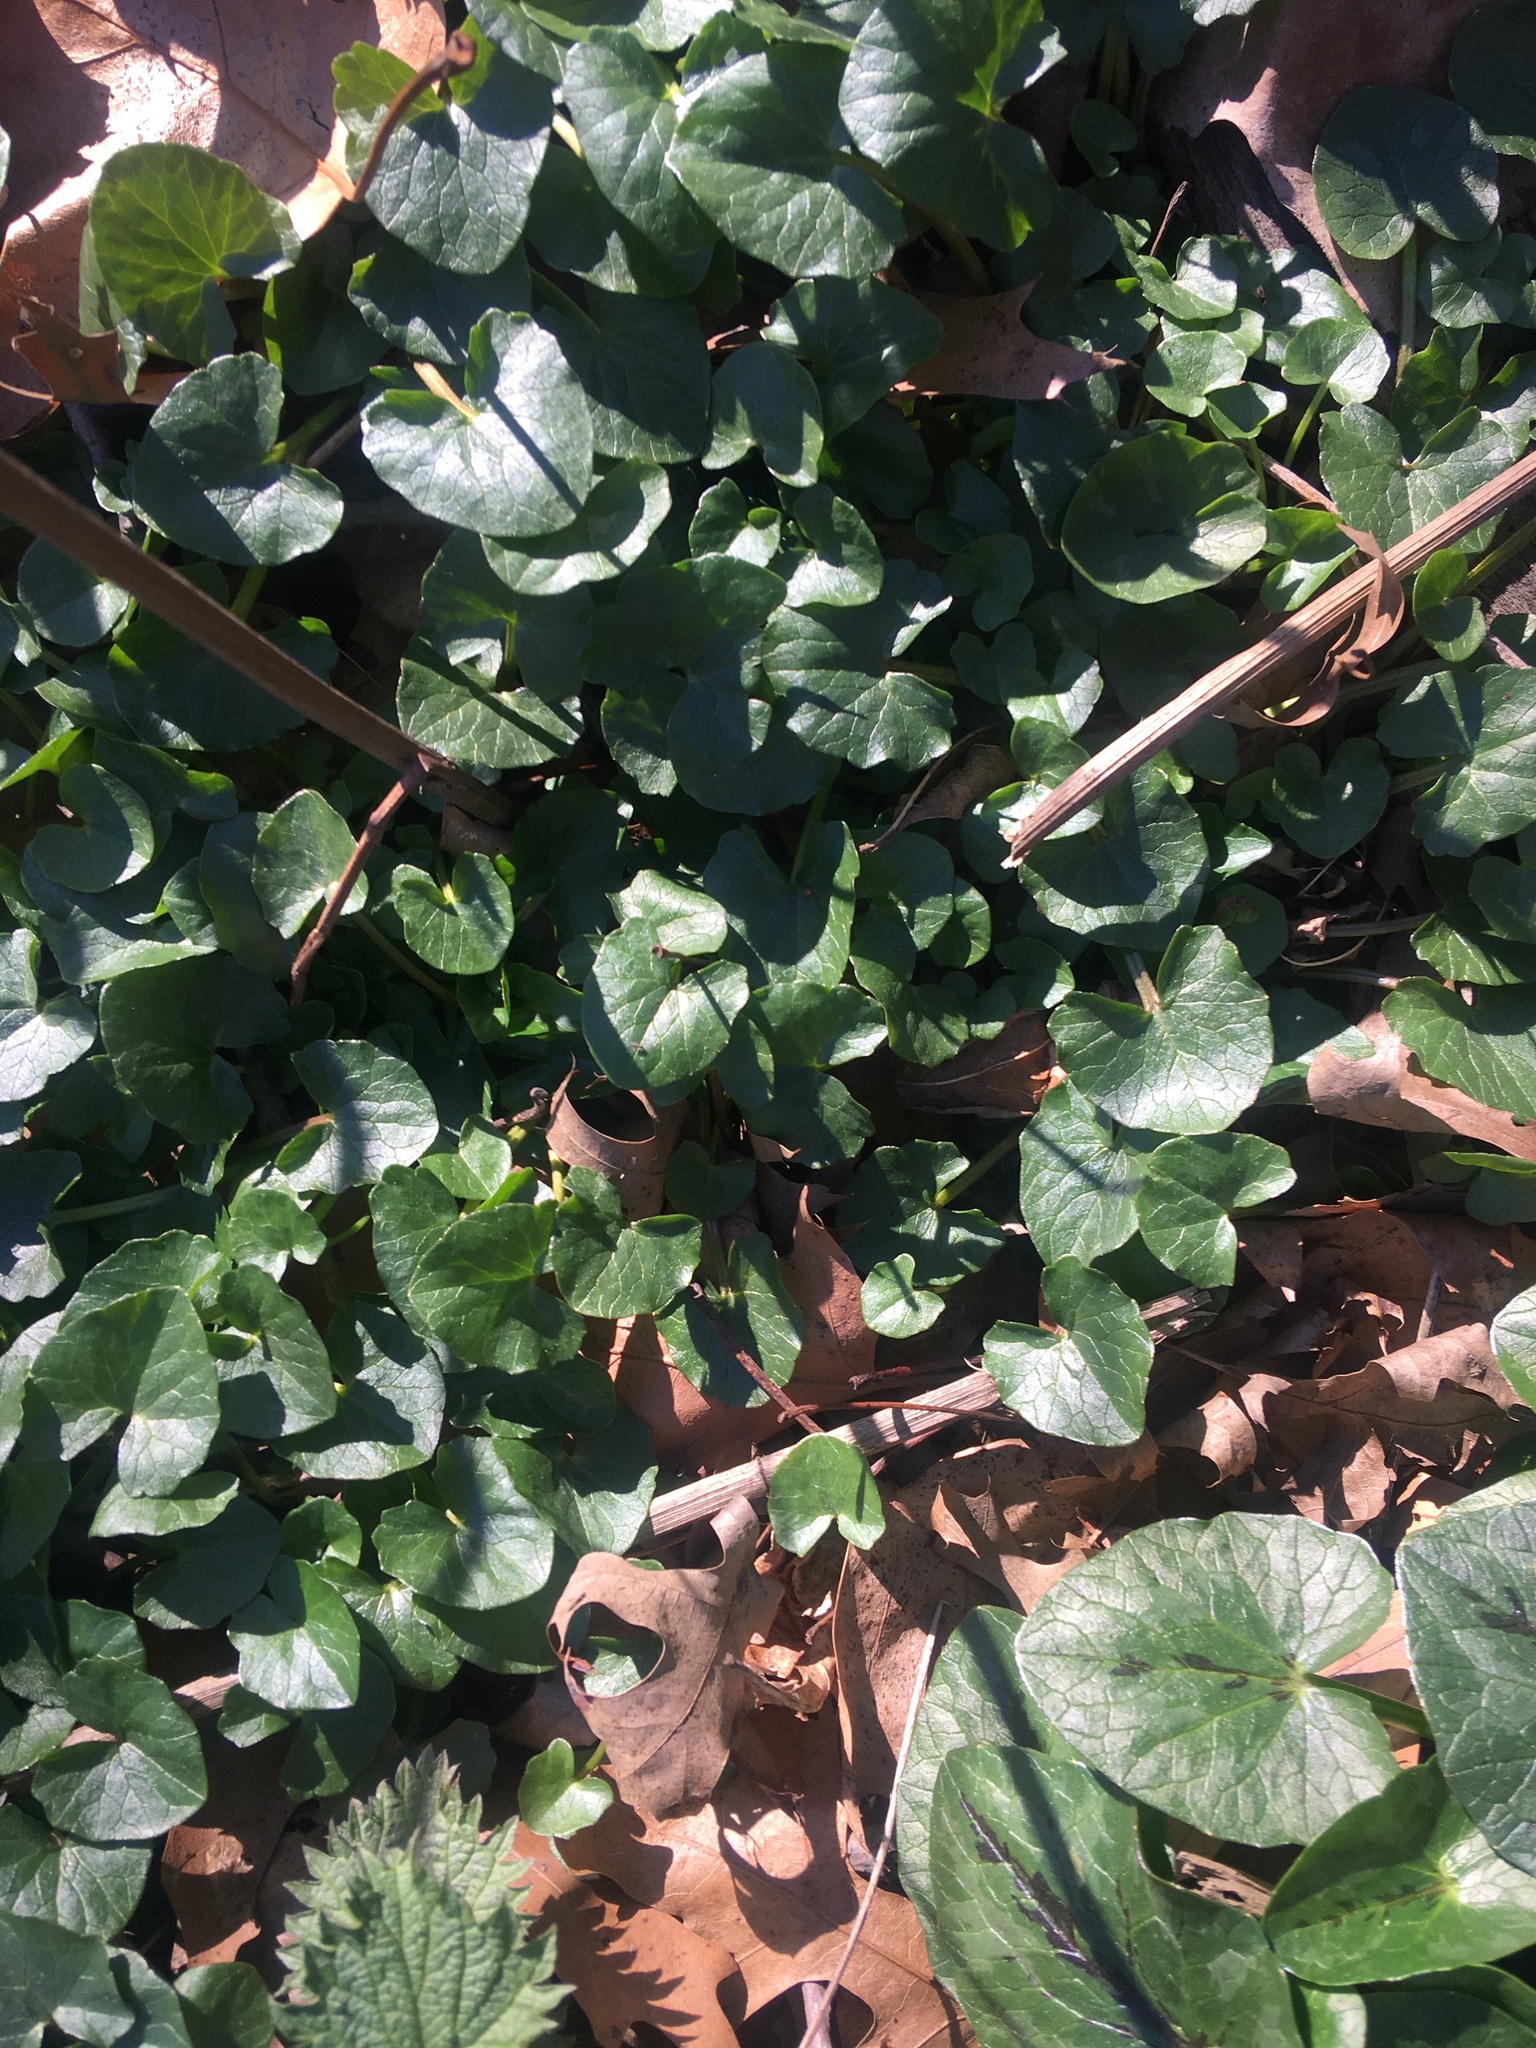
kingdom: Plantae
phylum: Tracheophyta
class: Magnoliopsida
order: Ranunculales
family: Ranunculaceae
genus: Ficaria
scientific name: Ficaria verna
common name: Lesser celandine
